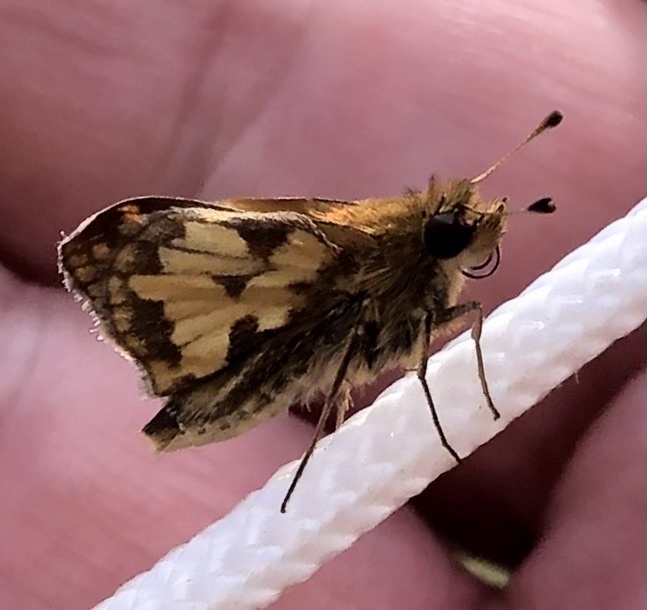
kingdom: Animalia
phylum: Arthropoda
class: Insecta
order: Lepidoptera
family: Hesperiidae
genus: Polites
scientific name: Polites coras
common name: Peck's skipper
